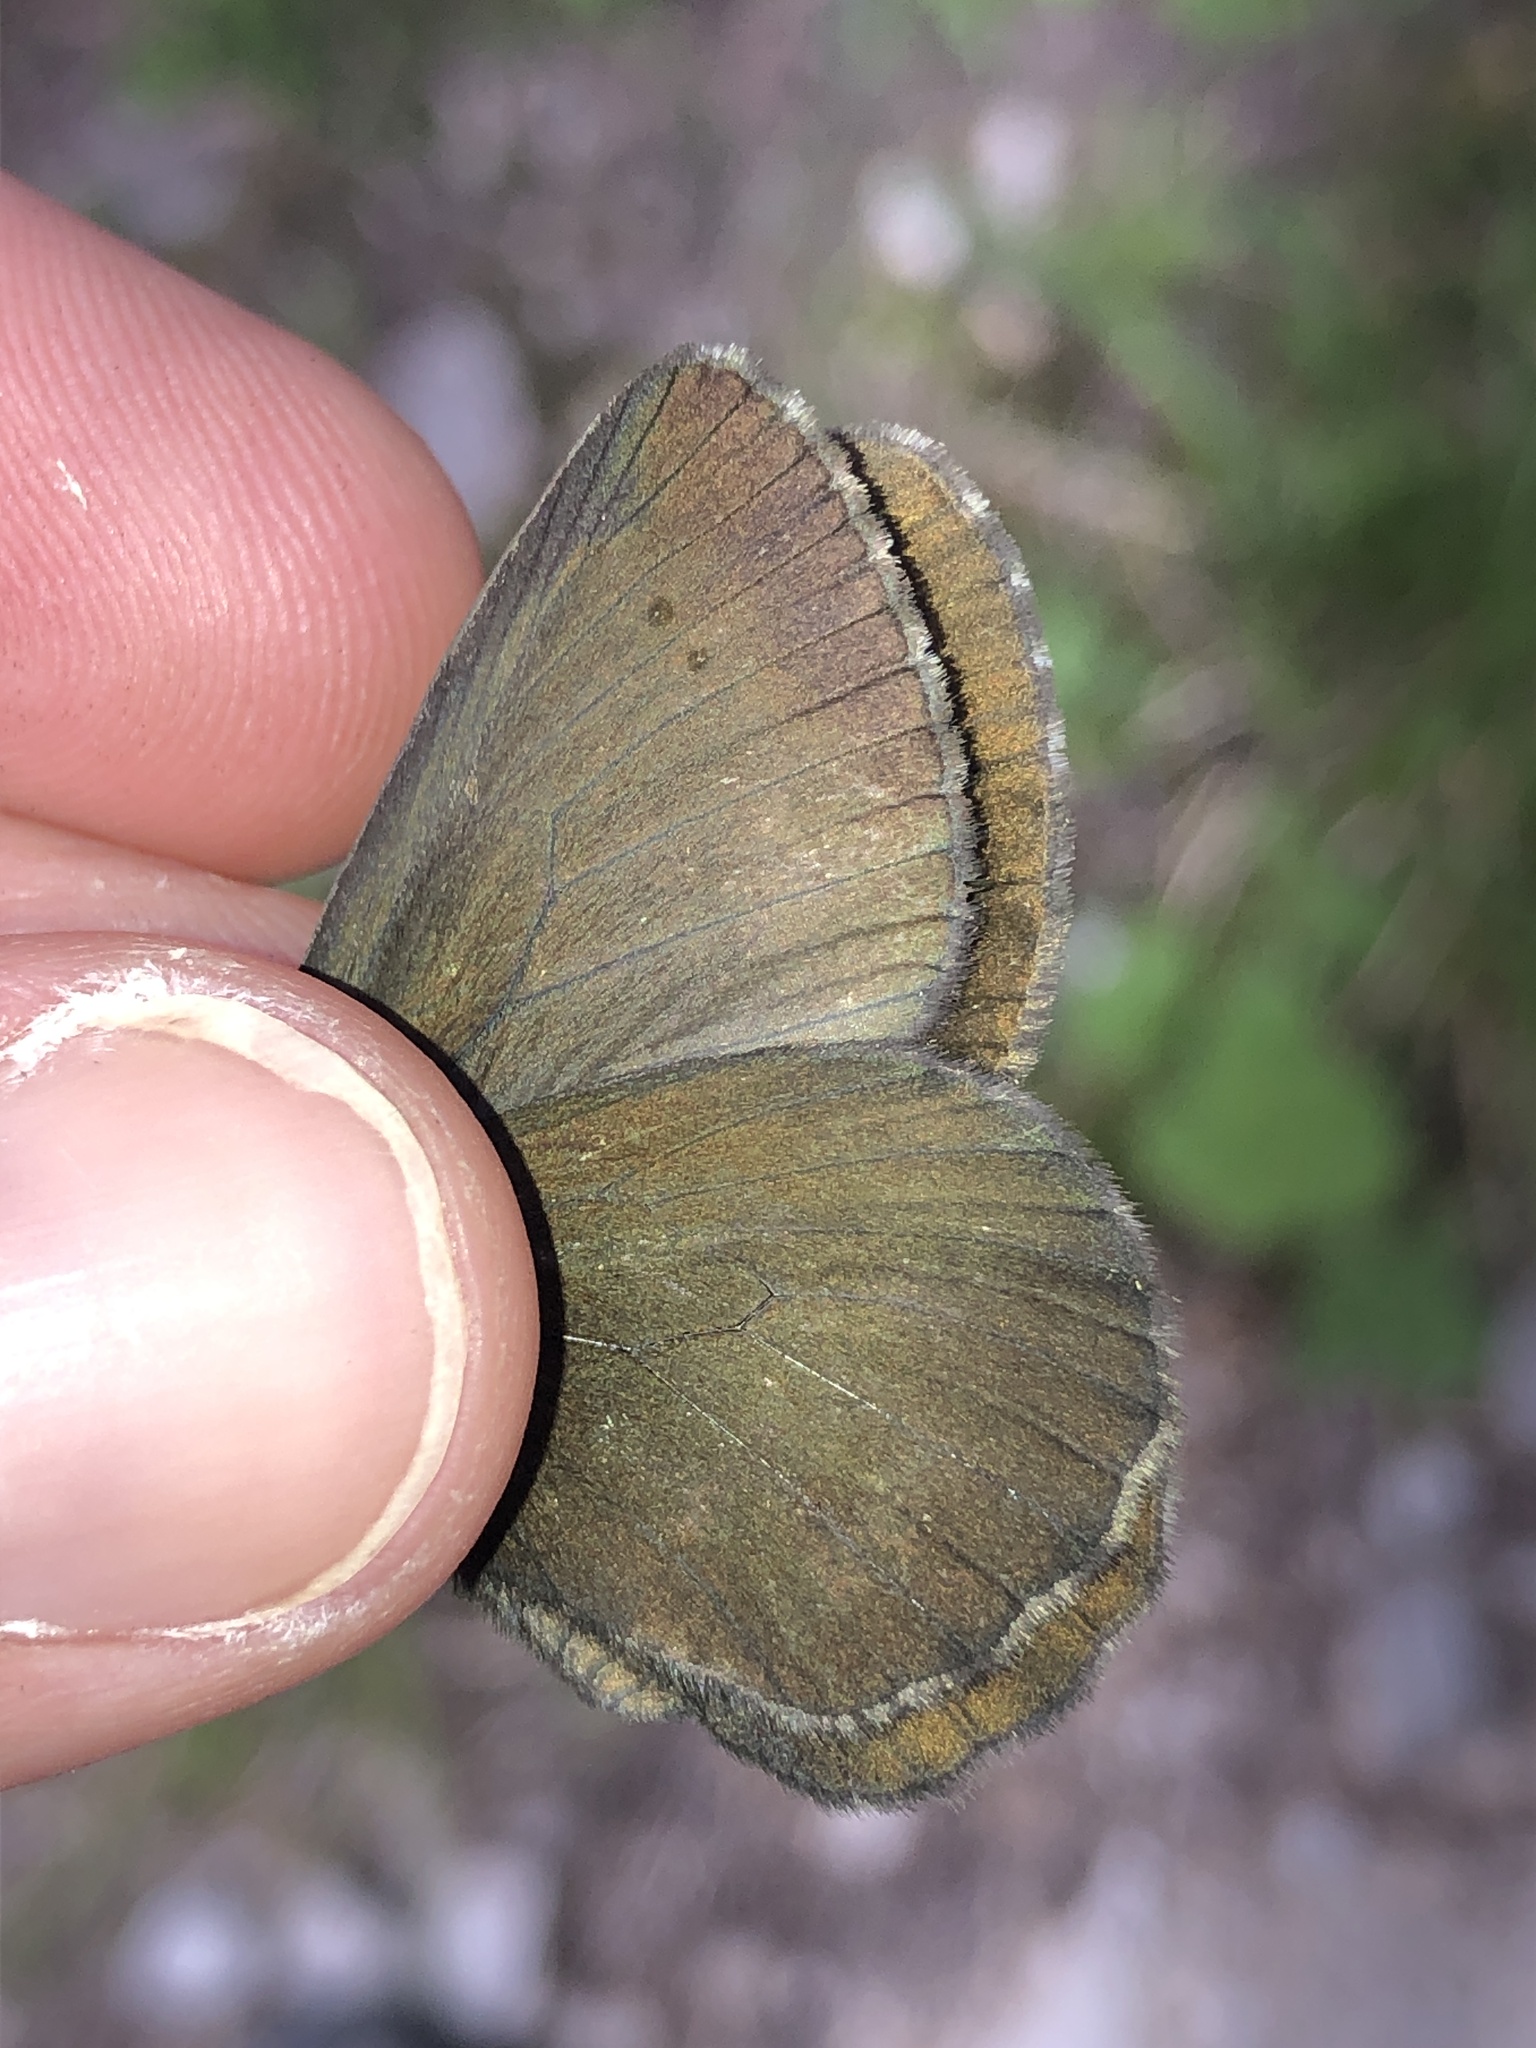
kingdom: Animalia
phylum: Arthropoda
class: Insecta
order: Lepidoptera
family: Nymphalidae
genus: Erebia
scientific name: Erebia euryale
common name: Large ringlet
